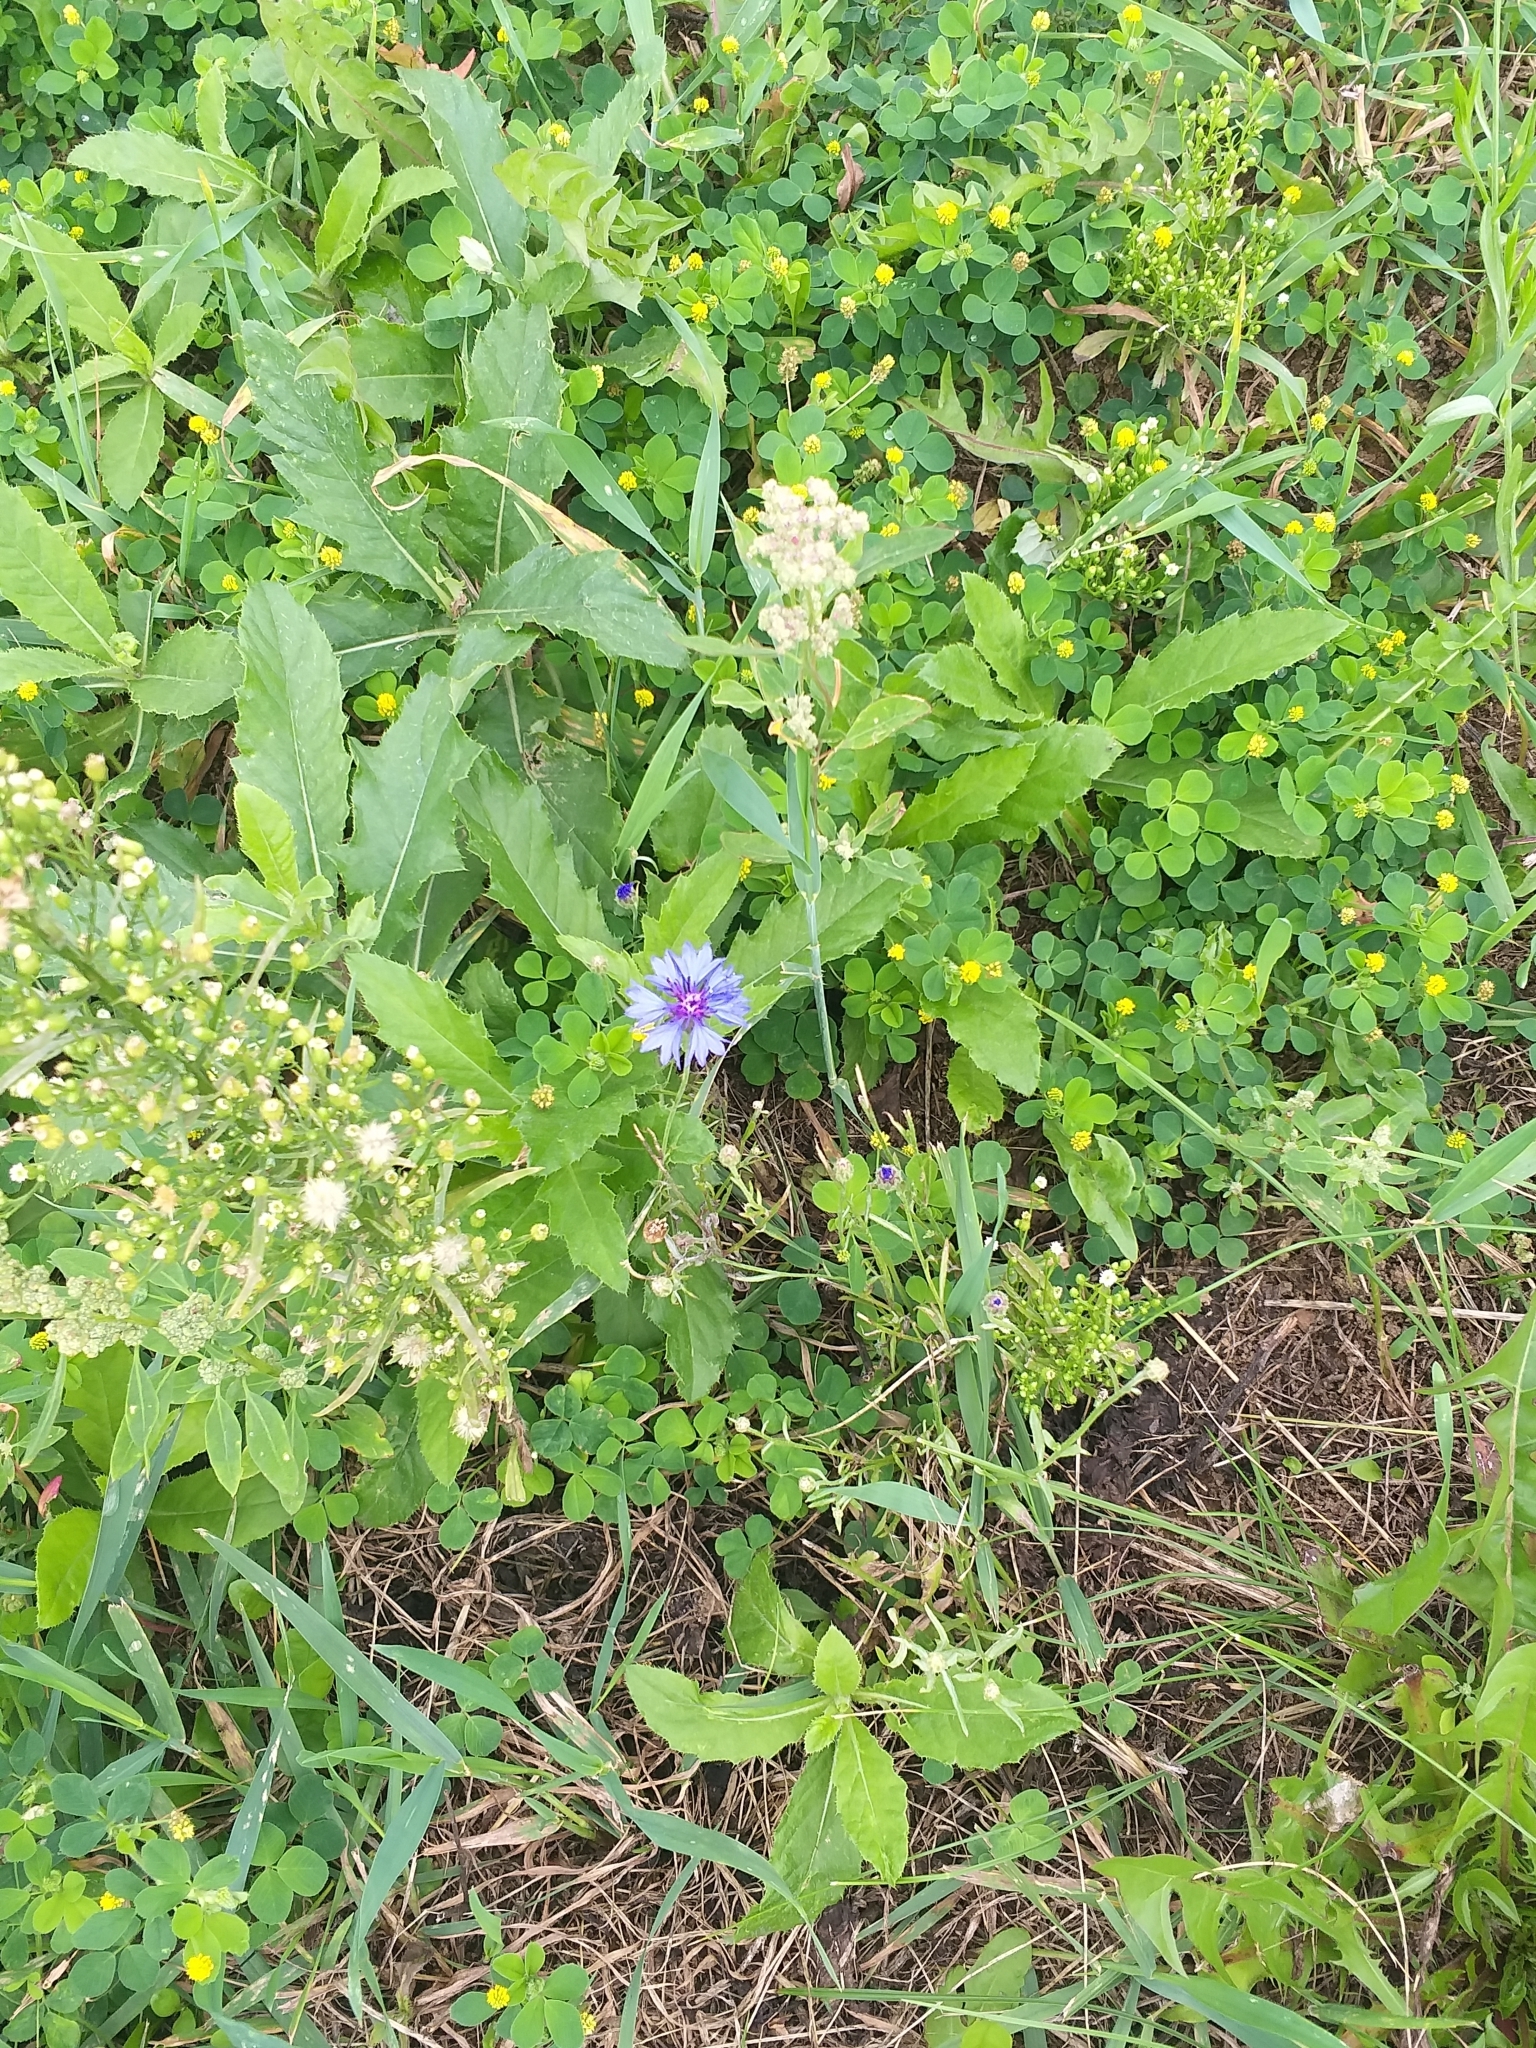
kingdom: Plantae
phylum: Tracheophyta
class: Magnoliopsida
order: Asterales
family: Asteraceae
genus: Centaurea
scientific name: Centaurea cyanus
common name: Cornflower
